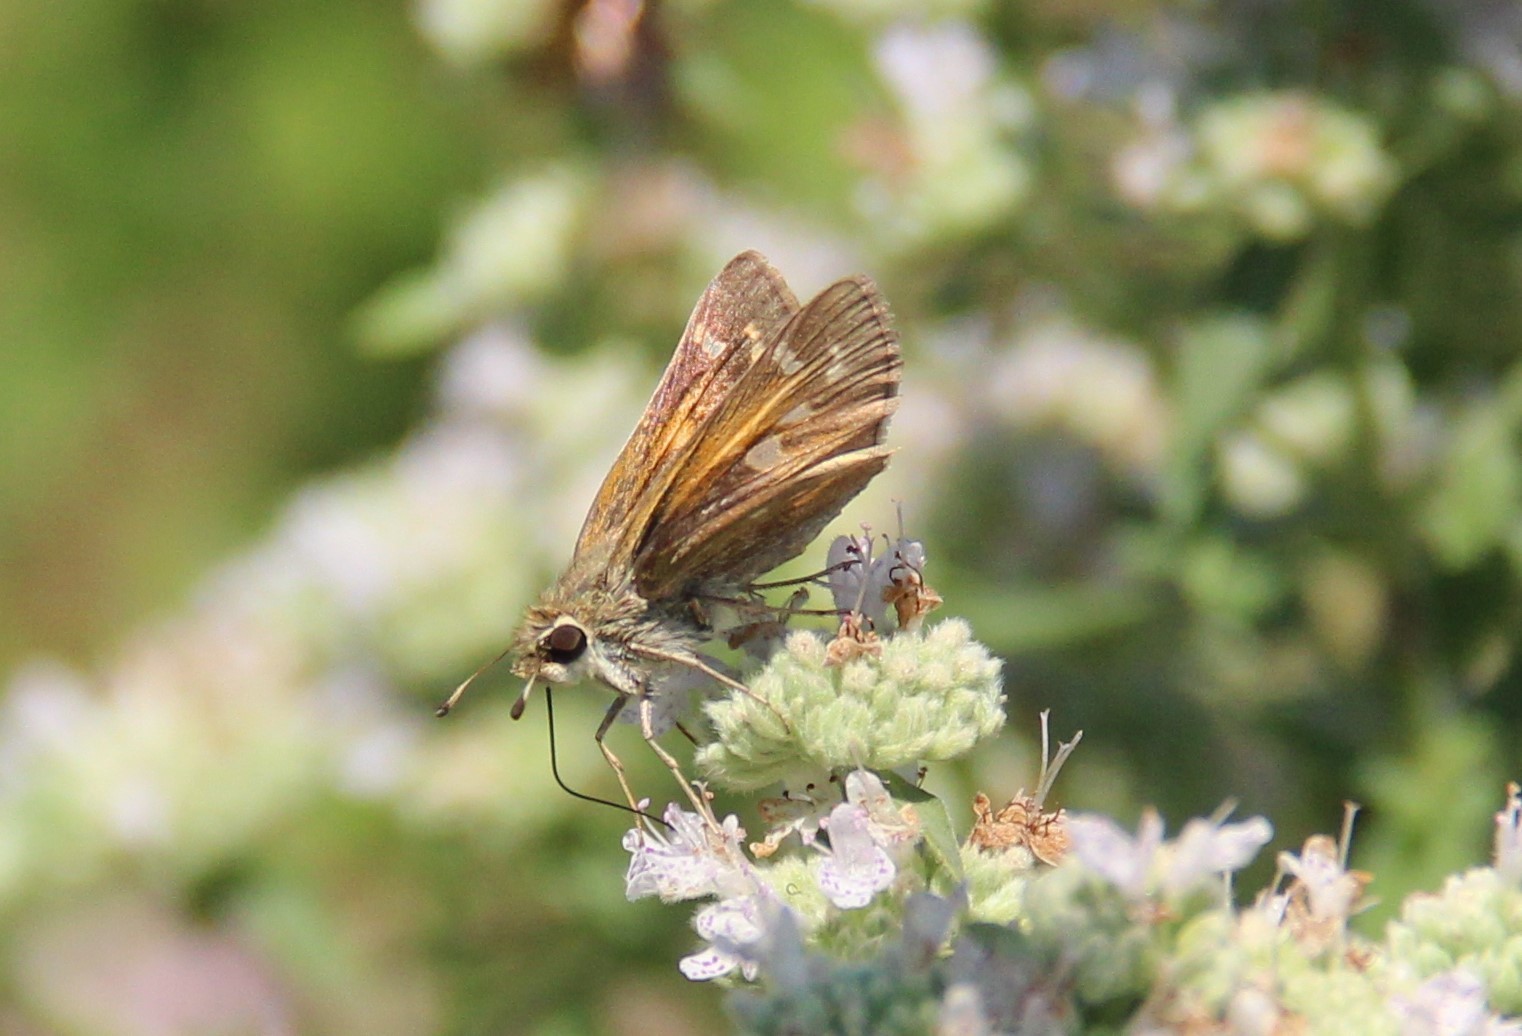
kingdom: Animalia
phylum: Arthropoda
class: Insecta
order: Lepidoptera
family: Hesperiidae
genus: Atalopedes
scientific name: Atalopedes
